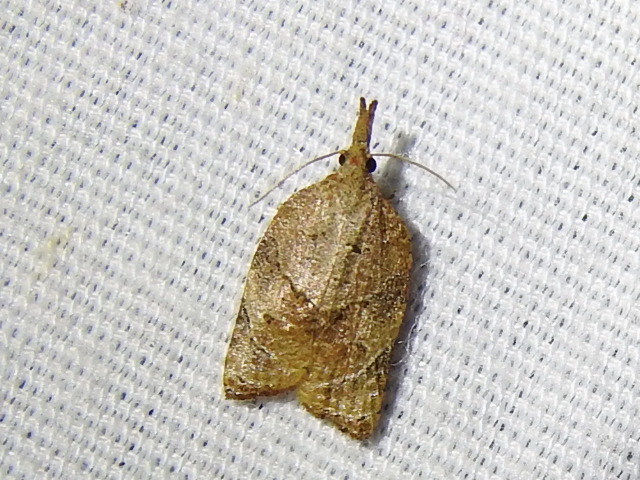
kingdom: Animalia
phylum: Arthropoda
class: Insecta
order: Lepidoptera
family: Tortricidae
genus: Platynota
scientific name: Platynota rostrana
